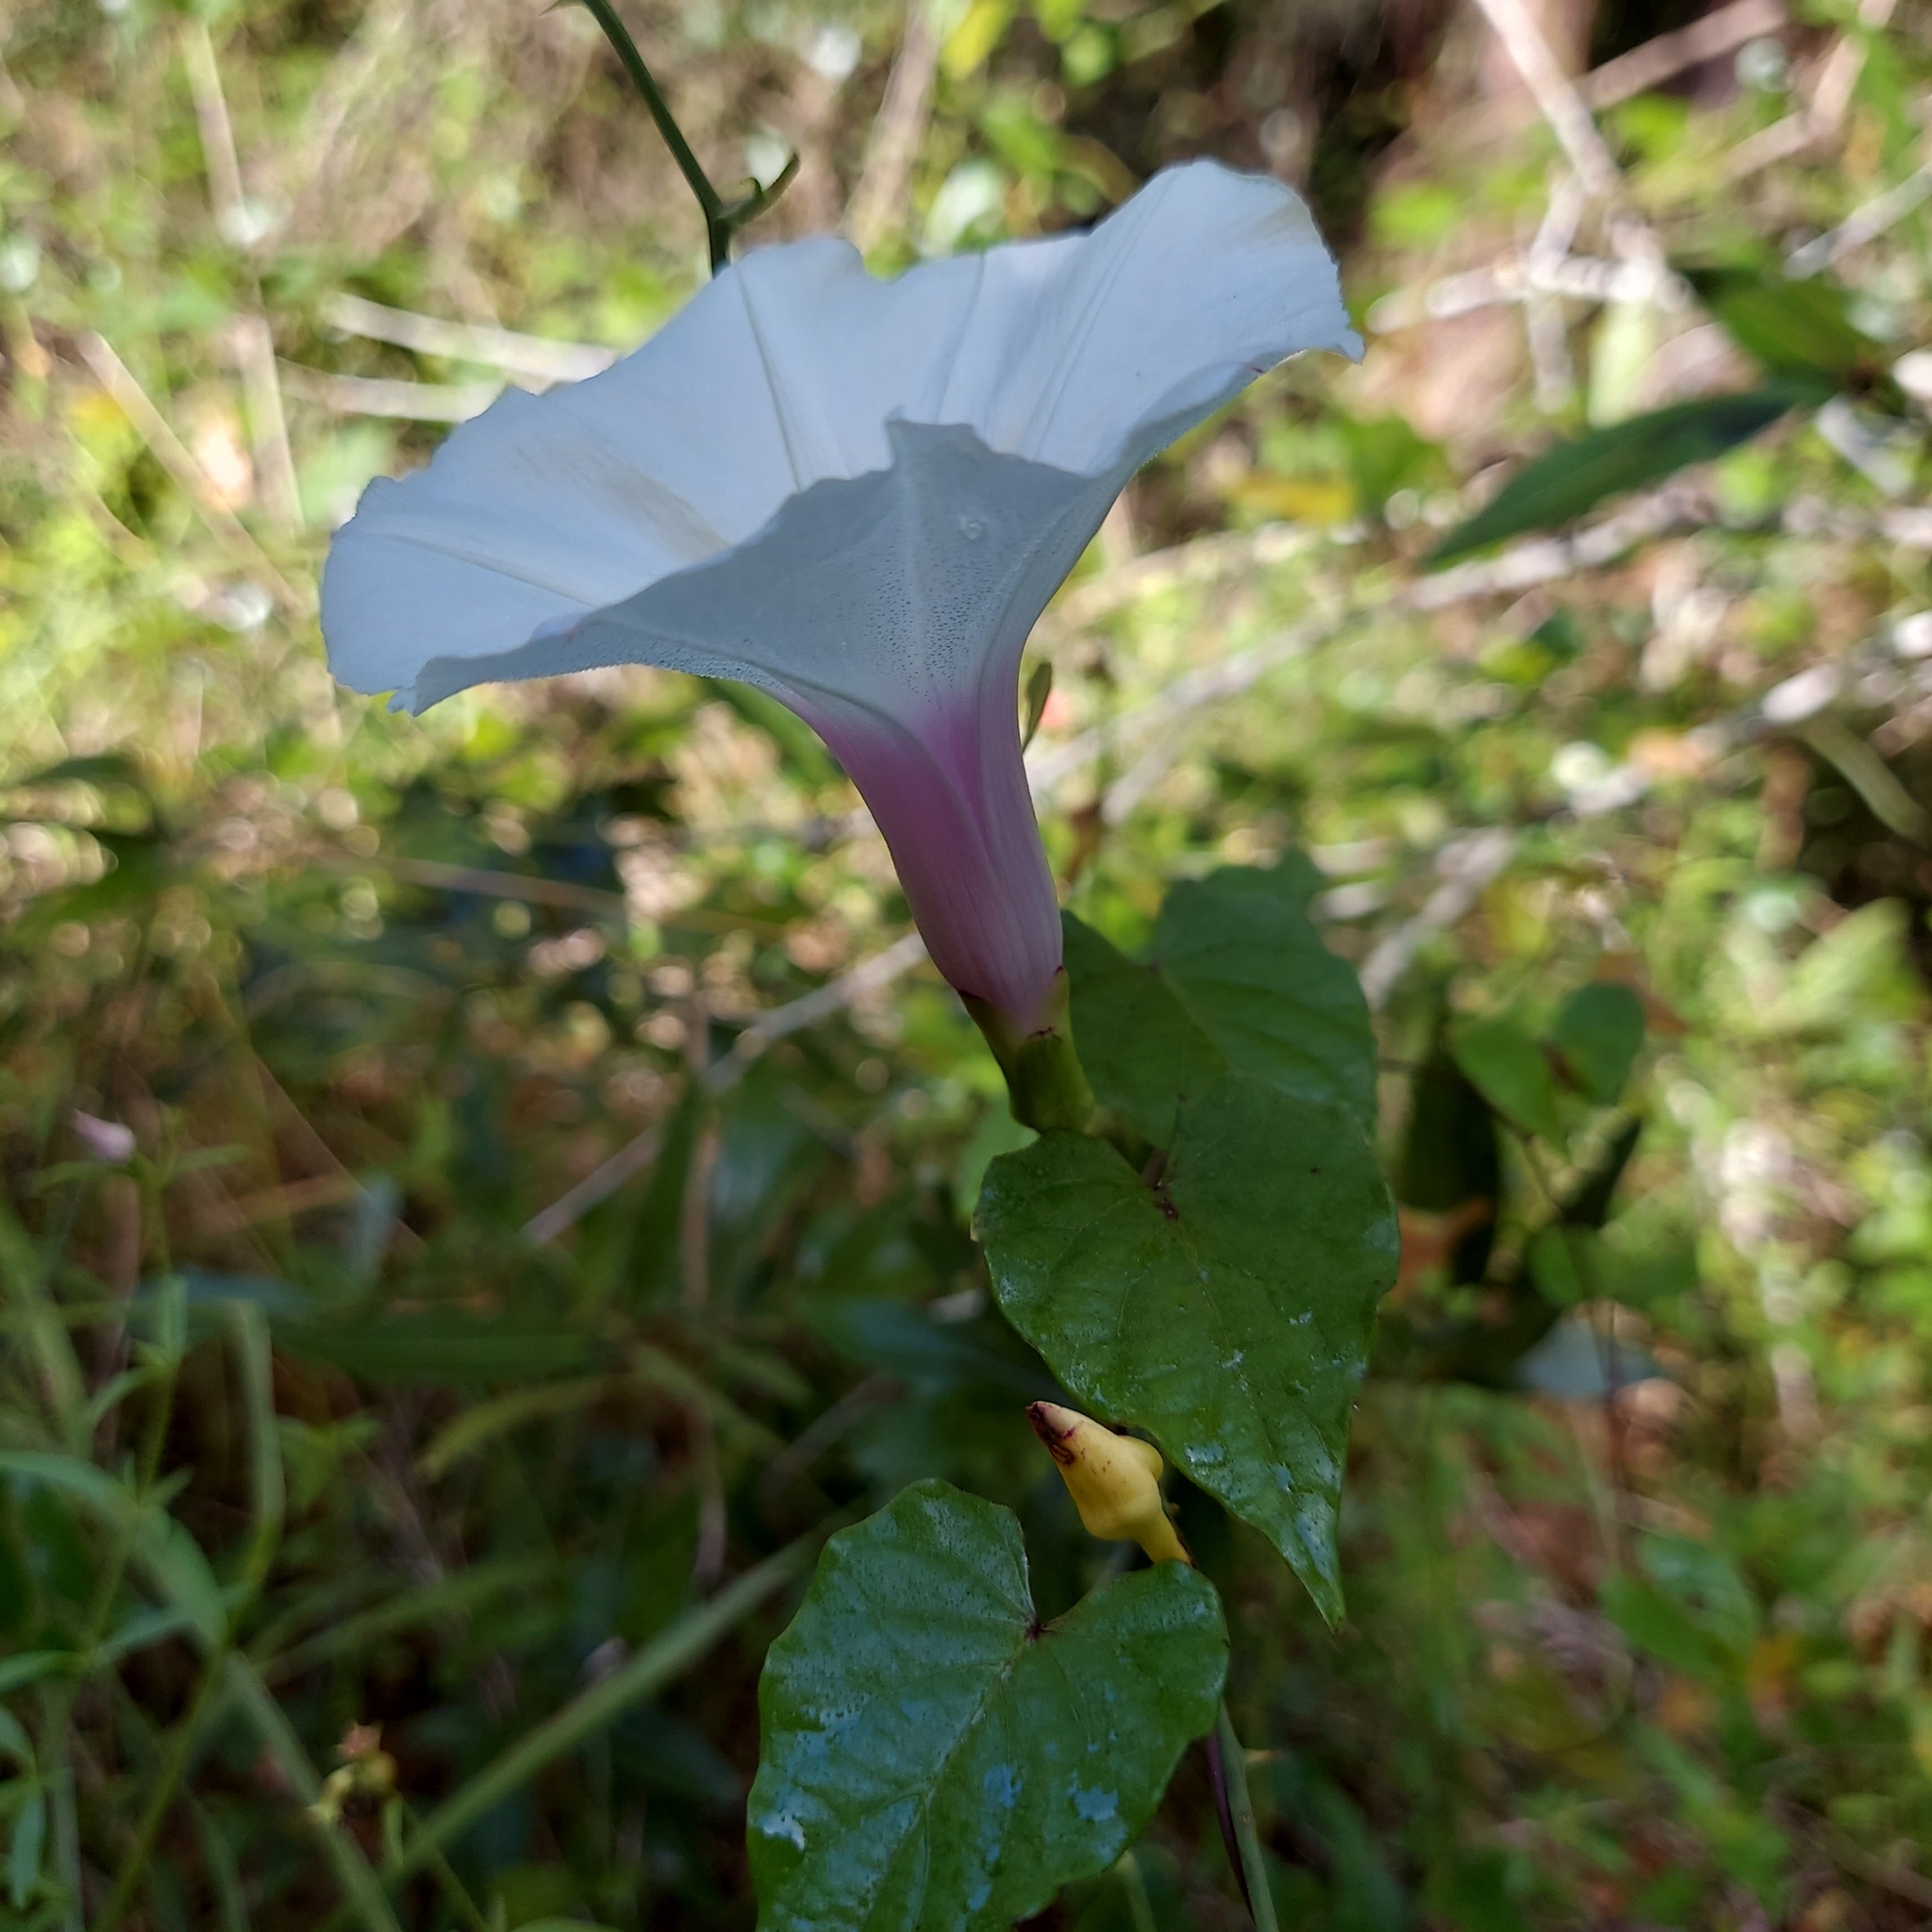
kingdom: Plantae
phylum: Tracheophyta
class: Magnoliopsida
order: Solanales
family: Convolvulaceae
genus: Ipomoea
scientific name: Ipomoea pandurata
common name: Man-of-the-earth
